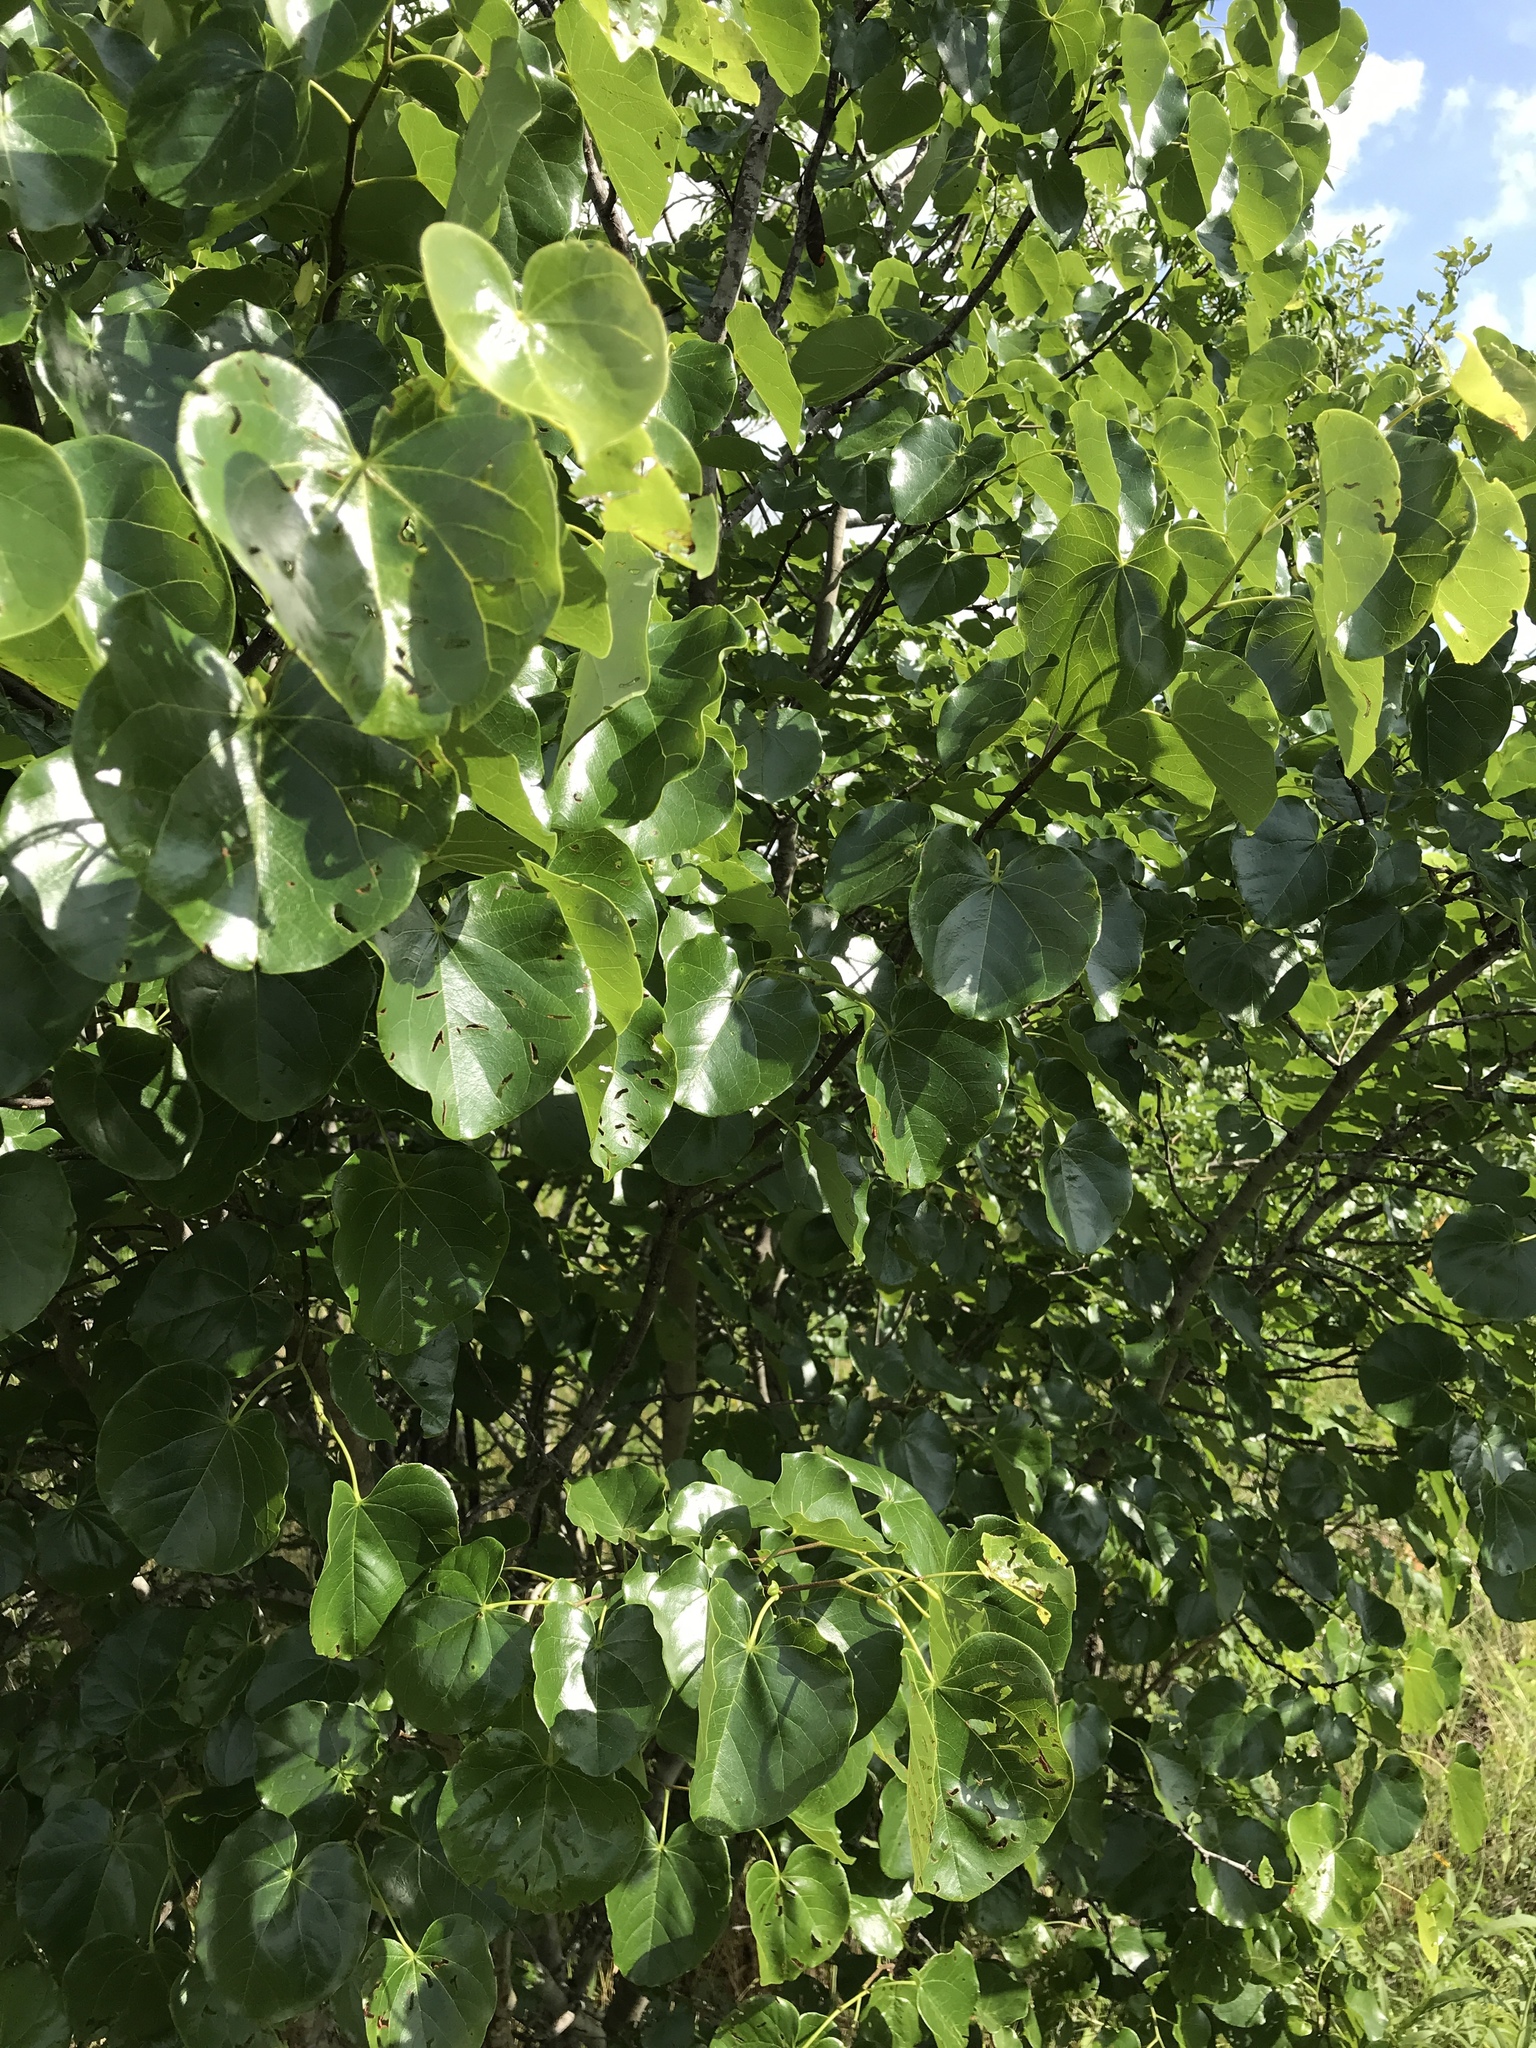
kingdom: Plantae
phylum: Tracheophyta
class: Magnoliopsida
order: Fabales
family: Fabaceae
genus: Cercis
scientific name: Cercis canadensis
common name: Eastern redbud
